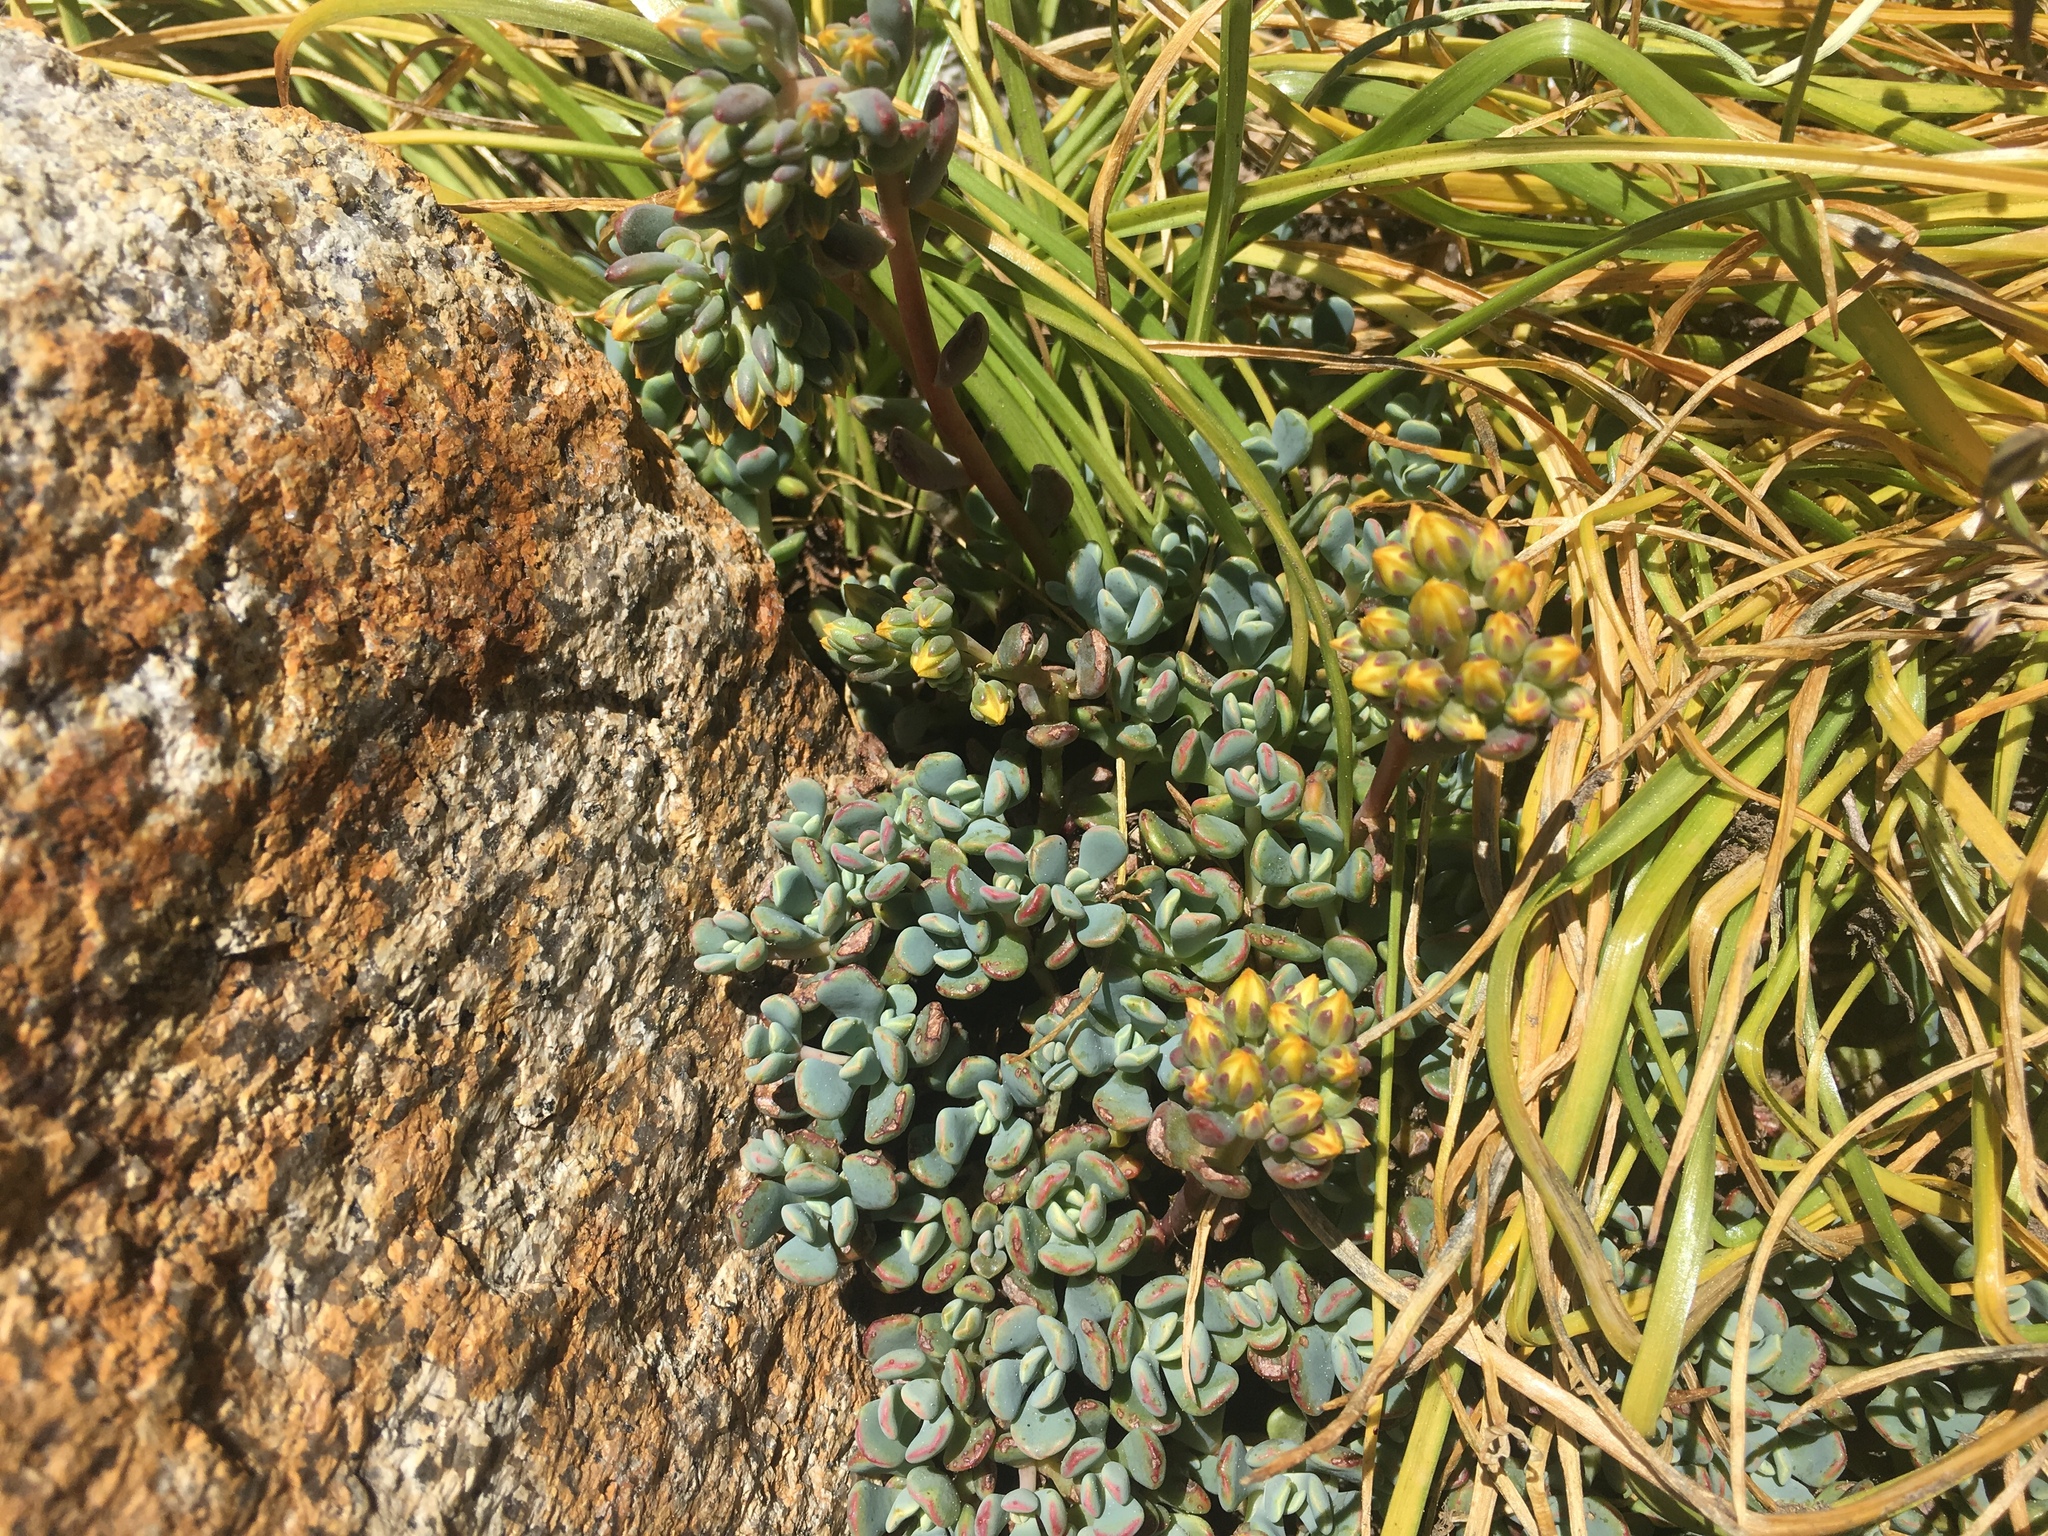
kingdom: Plantae
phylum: Tracheophyta
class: Magnoliopsida
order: Saxifragales
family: Crassulaceae
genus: Sedum
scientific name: Sedum obtusatum
